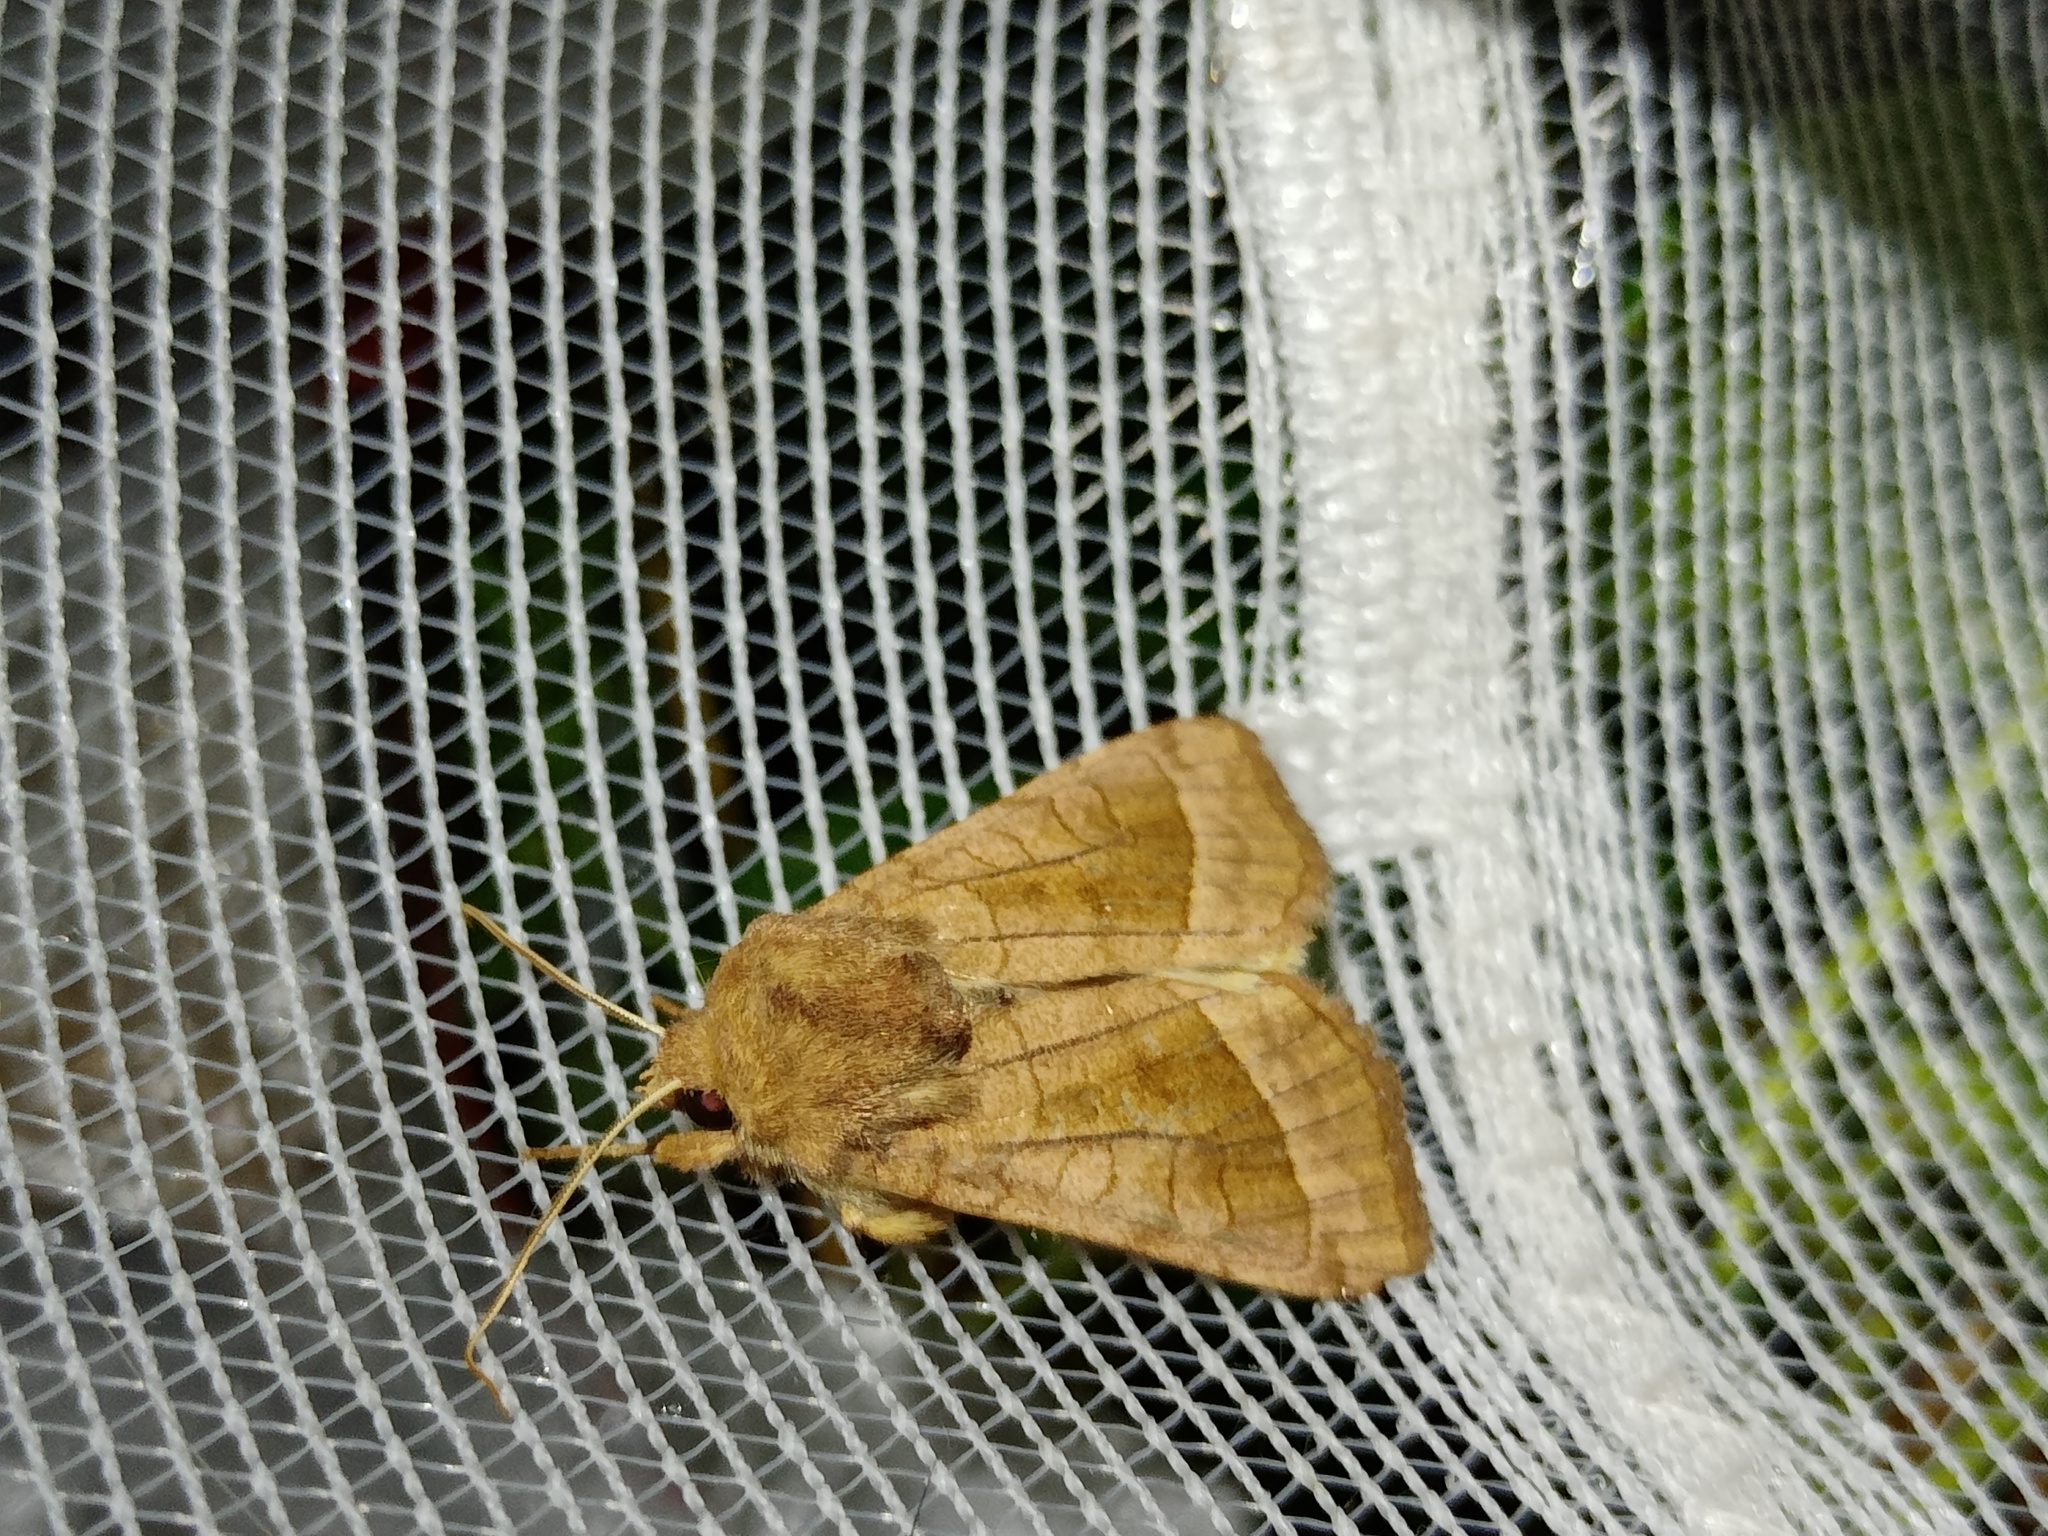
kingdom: Animalia
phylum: Arthropoda
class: Insecta
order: Lepidoptera
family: Noctuidae
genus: Hydraecia
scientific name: Hydraecia micacea
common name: Rosy rustic
